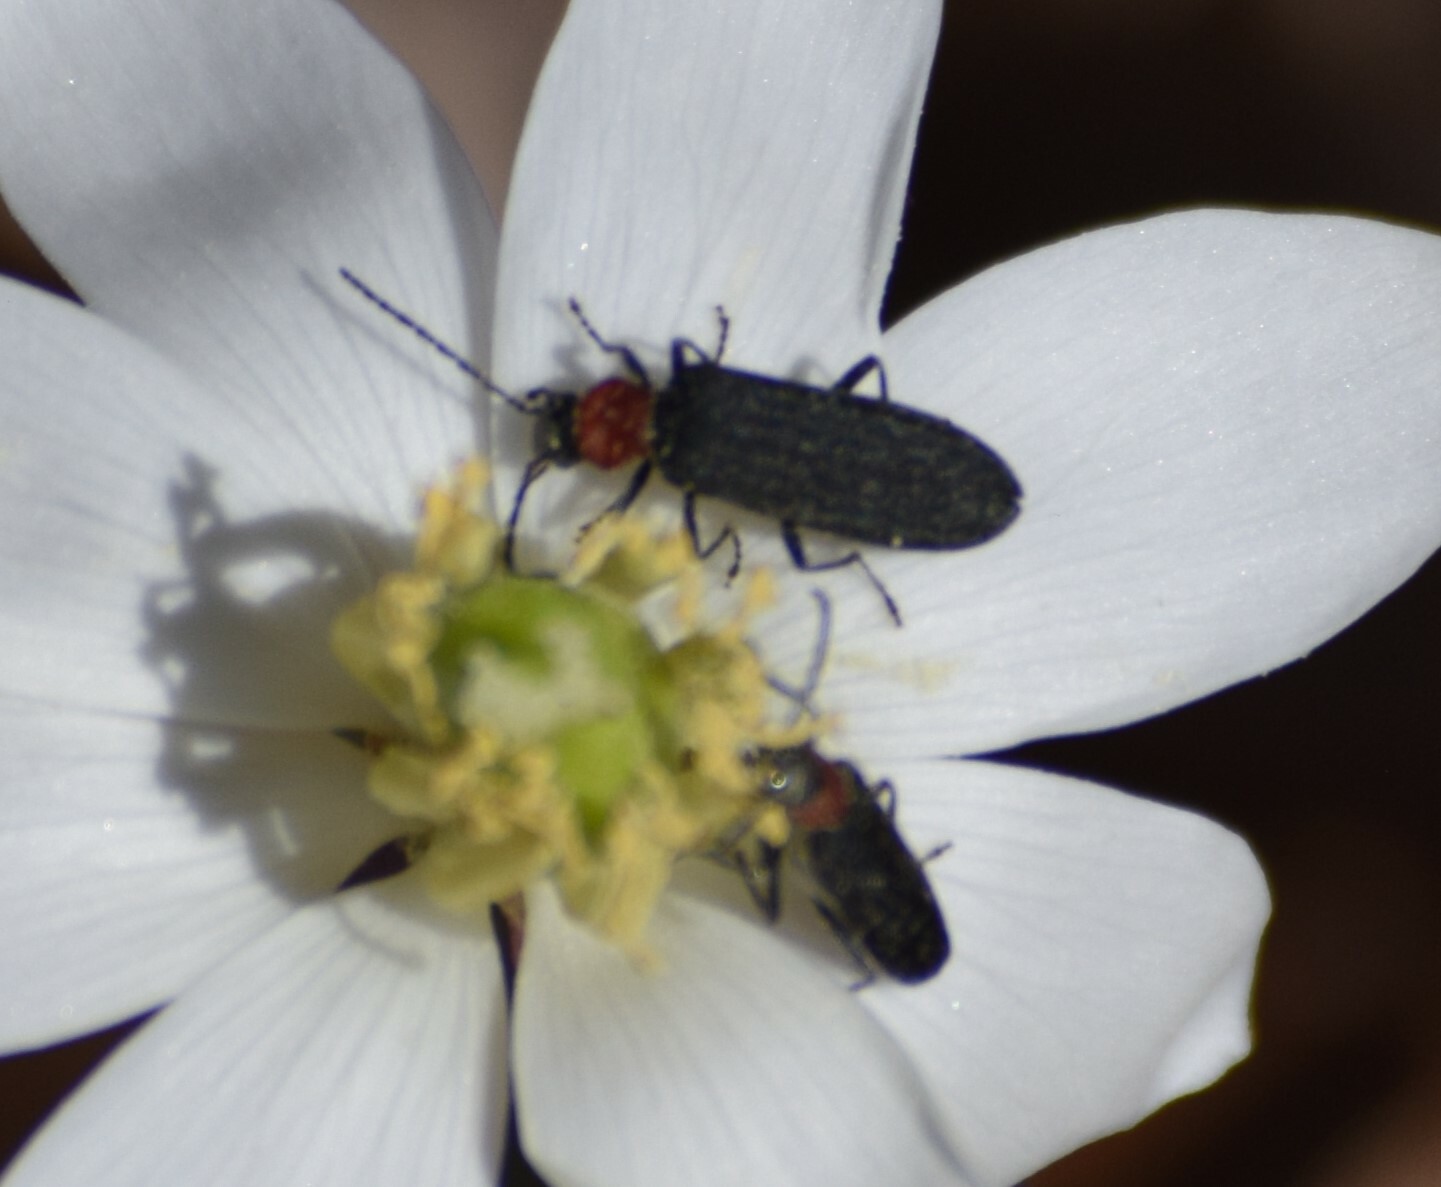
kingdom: Animalia
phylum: Arthropoda
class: Insecta
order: Coleoptera
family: Oedemeridae
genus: Ischnomera
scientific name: Ischnomera
